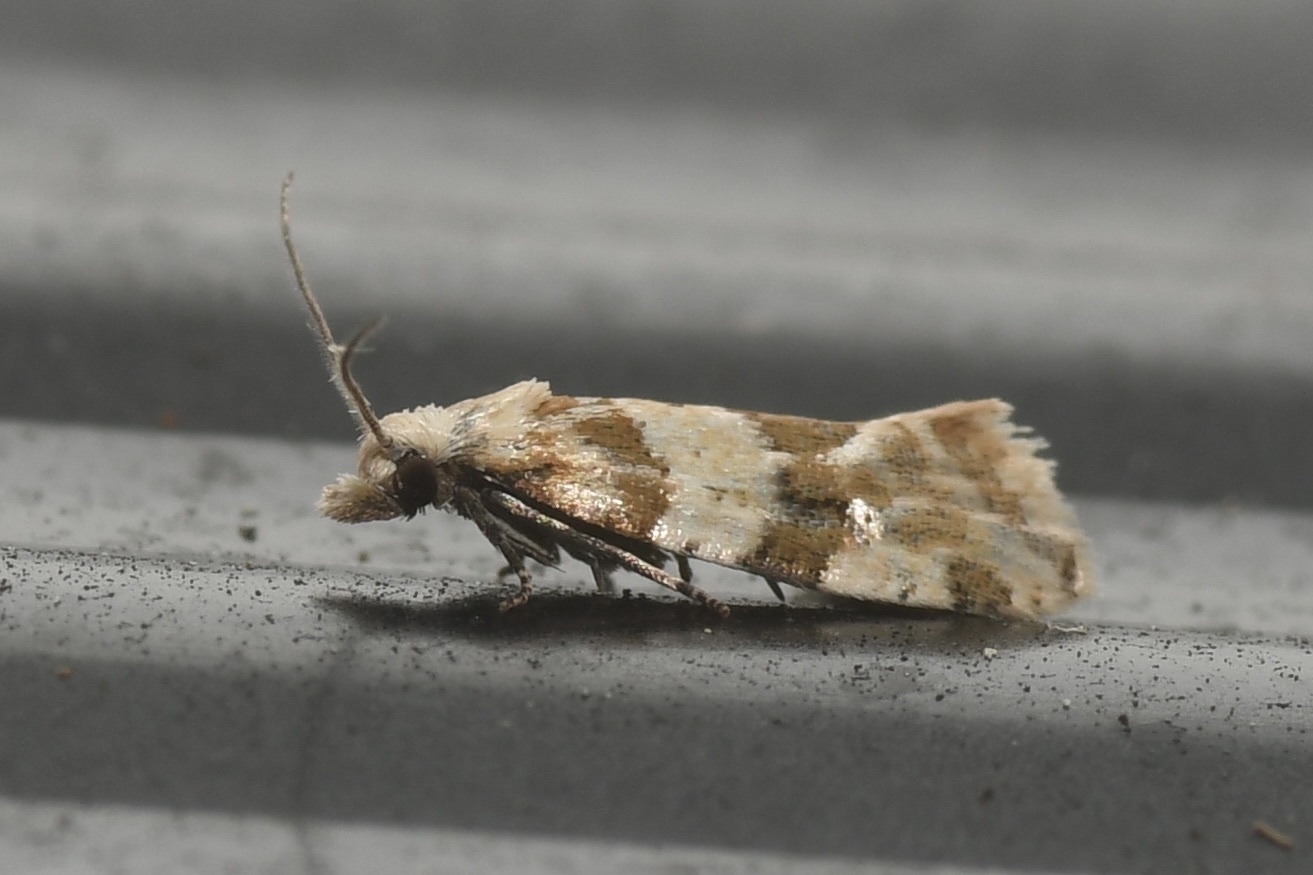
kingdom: Animalia
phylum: Arthropoda
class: Insecta
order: Lepidoptera
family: Tortricidae
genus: Aethes
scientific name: Aethes argentilimitana
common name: Silver-bordered aethes
